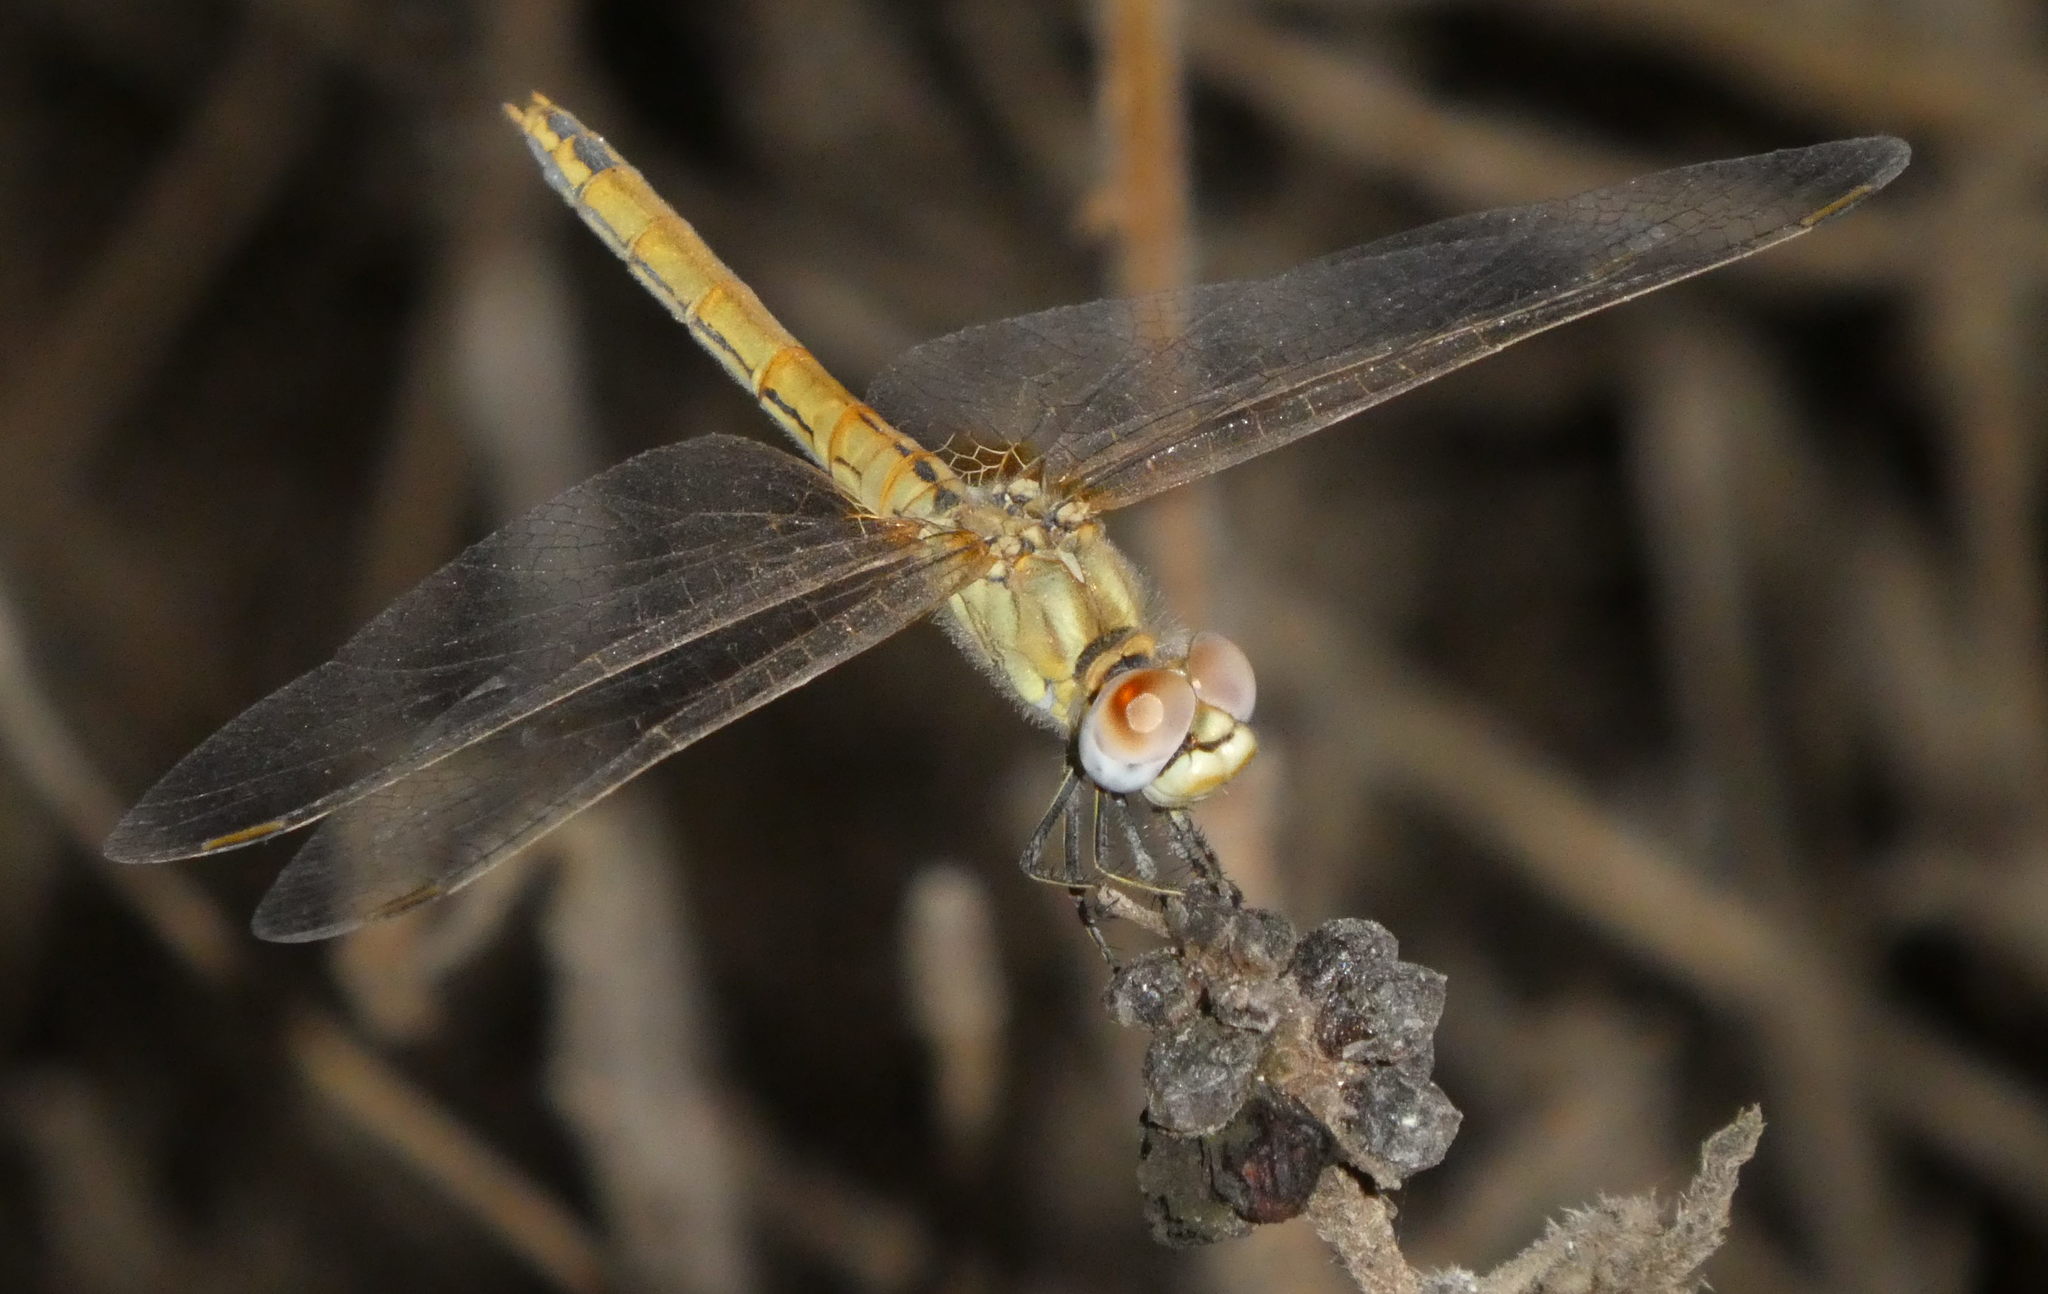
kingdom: Animalia
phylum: Arthropoda
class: Insecta
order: Odonata
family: Libellulidae
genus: Sympetrum
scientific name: Sympetrum fonscolombii
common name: Red-veined darter
